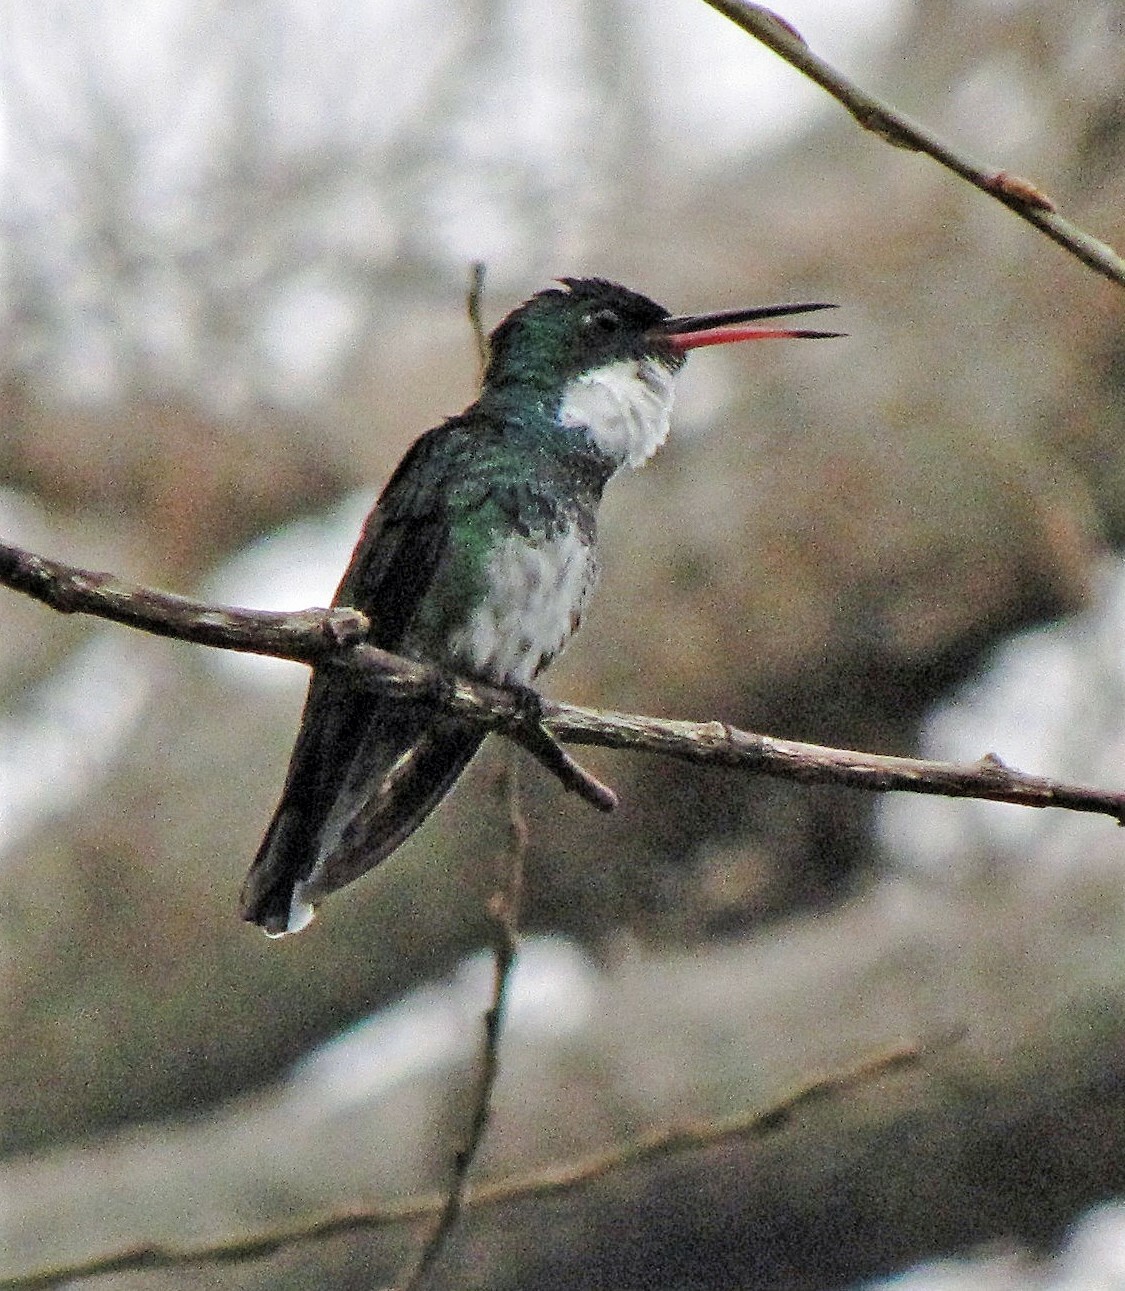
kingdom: Animalia
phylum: Chordata
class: Aves
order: Apodiformes
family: Trochilidae
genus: Leucochloris
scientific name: Leucochloris albicollis
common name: White-throated hummingbird
